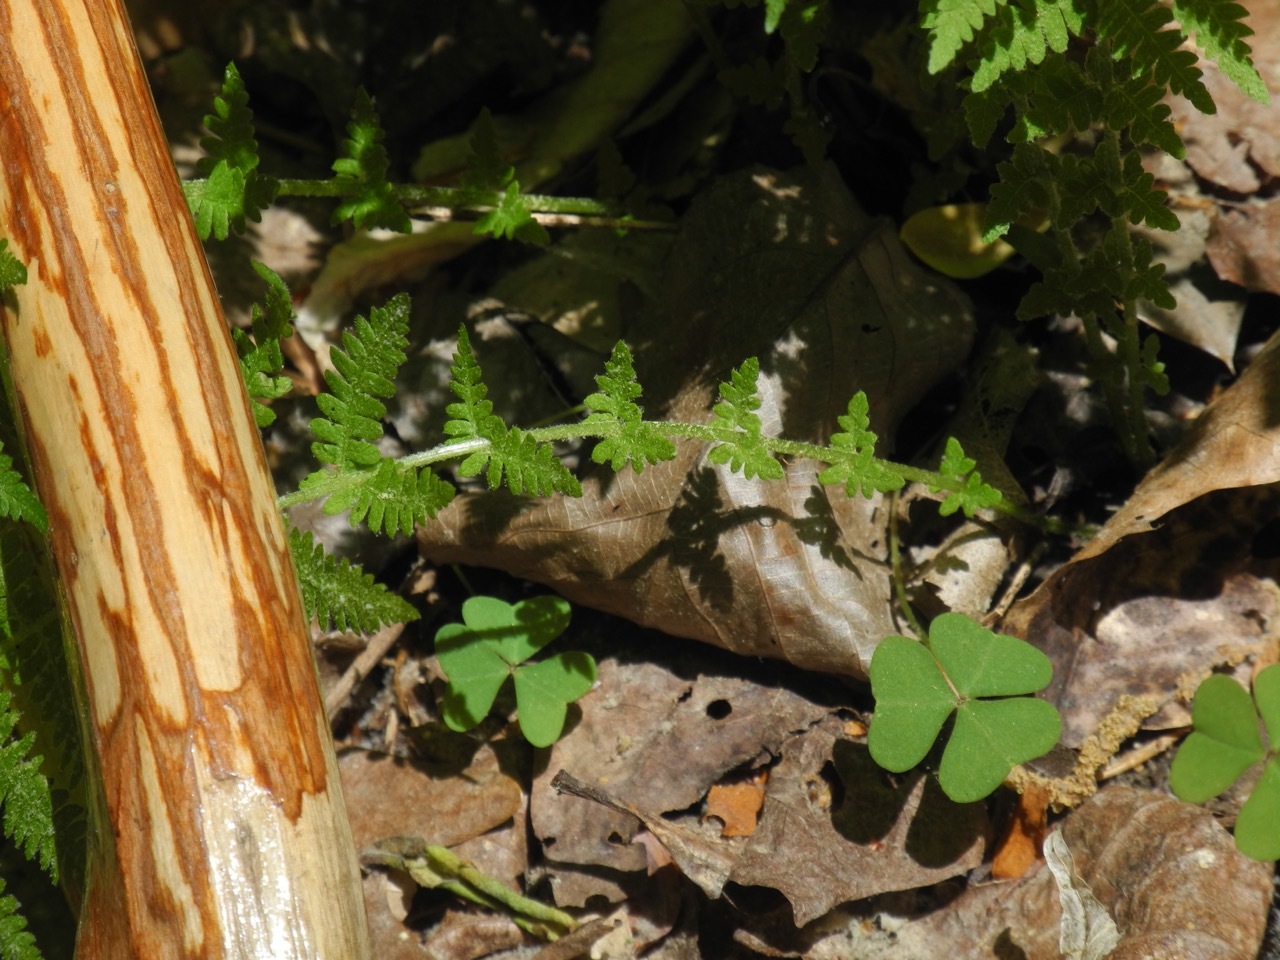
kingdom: Plantae
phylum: Tracheophyta
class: Polypodiopsida
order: Polypodiales
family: Thelypteridaceae
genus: Amauropelta
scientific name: Amauropelta noveboracensis
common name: New york fern
